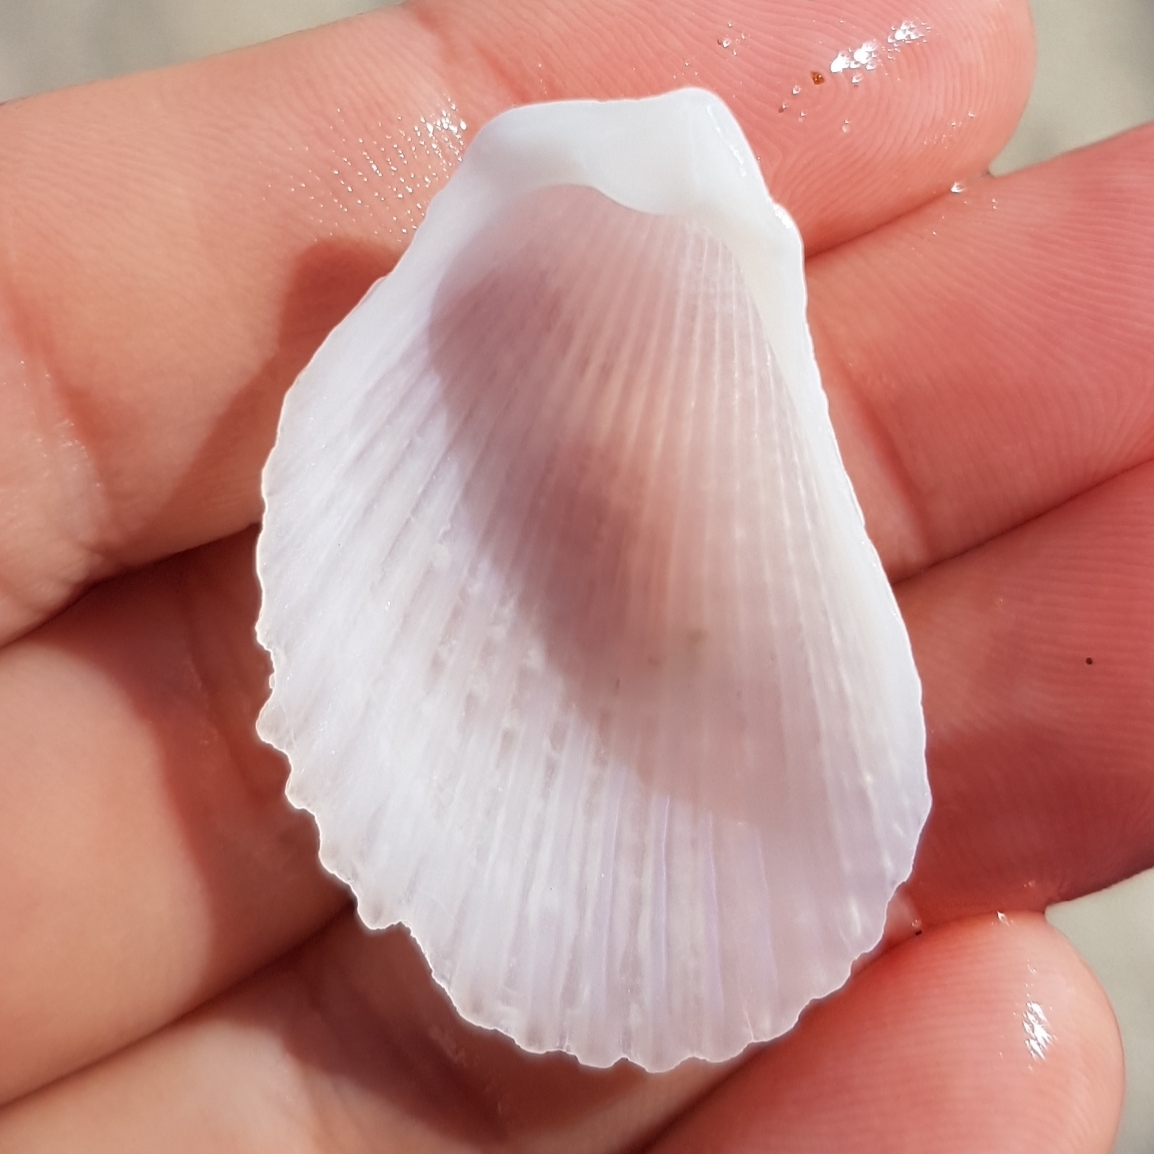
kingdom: Animalia
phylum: Mollusca
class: Bivalvia
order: Limida
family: Limidae
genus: Lima
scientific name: Lima lima
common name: Frilled file shell
